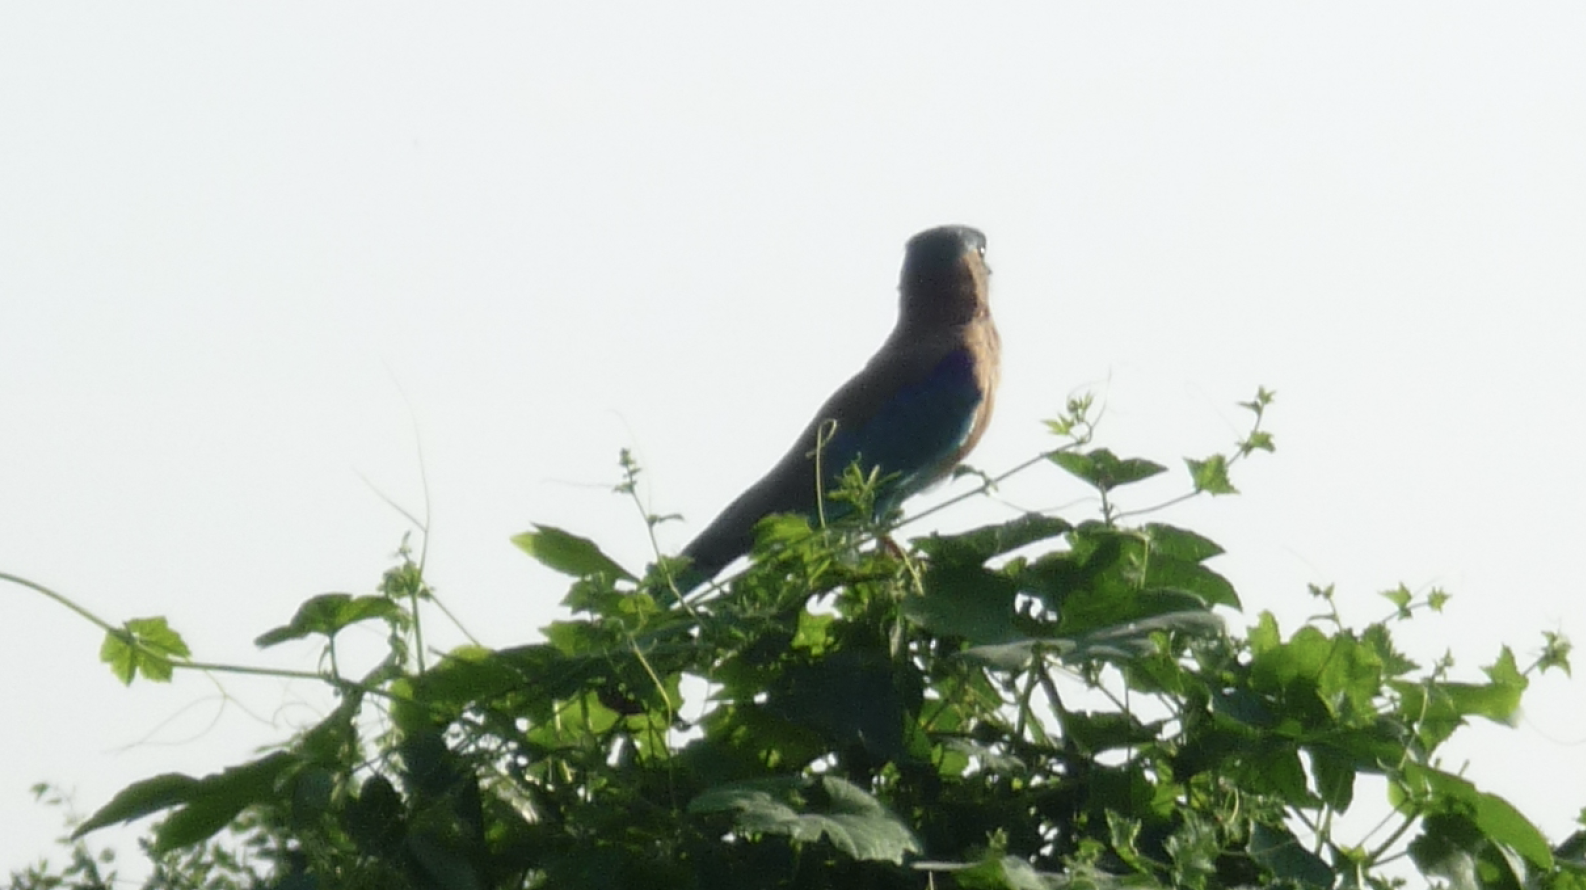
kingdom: Animalia
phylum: Chordata
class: Aves
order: Coraciiformes
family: Coraciidae
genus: Coracias
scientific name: Coracias benghalensis
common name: Indian roller
